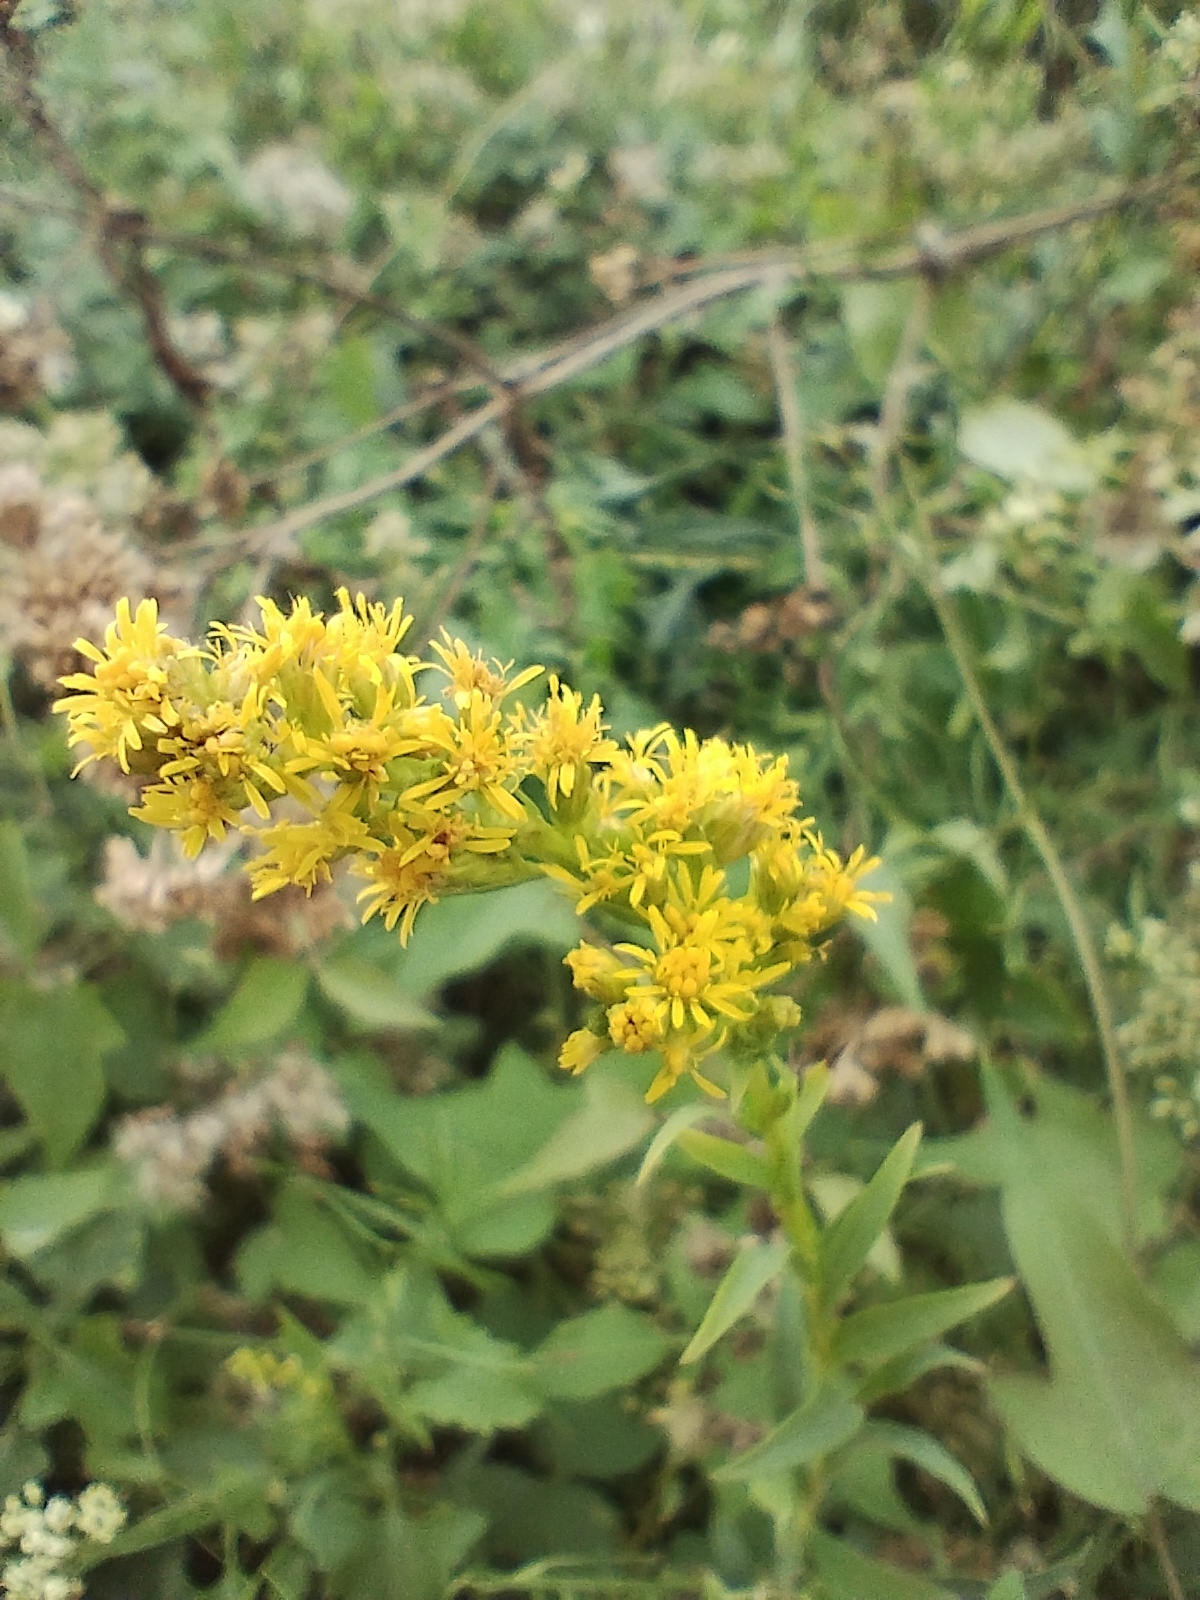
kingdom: Plantae
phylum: Tracheophyta
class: Magnoliopsida
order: Asterales
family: Asteraceae
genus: Solidago
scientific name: Solidago chilensis
